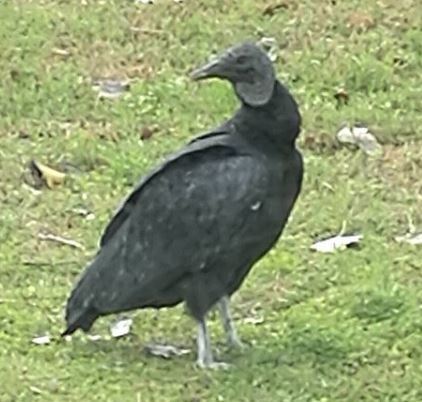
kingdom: Animalia
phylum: Chordata
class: Aves
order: Accipitriformes
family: Cathartidae
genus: Coragyps
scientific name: Coragyps atratus
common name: Black vulture
